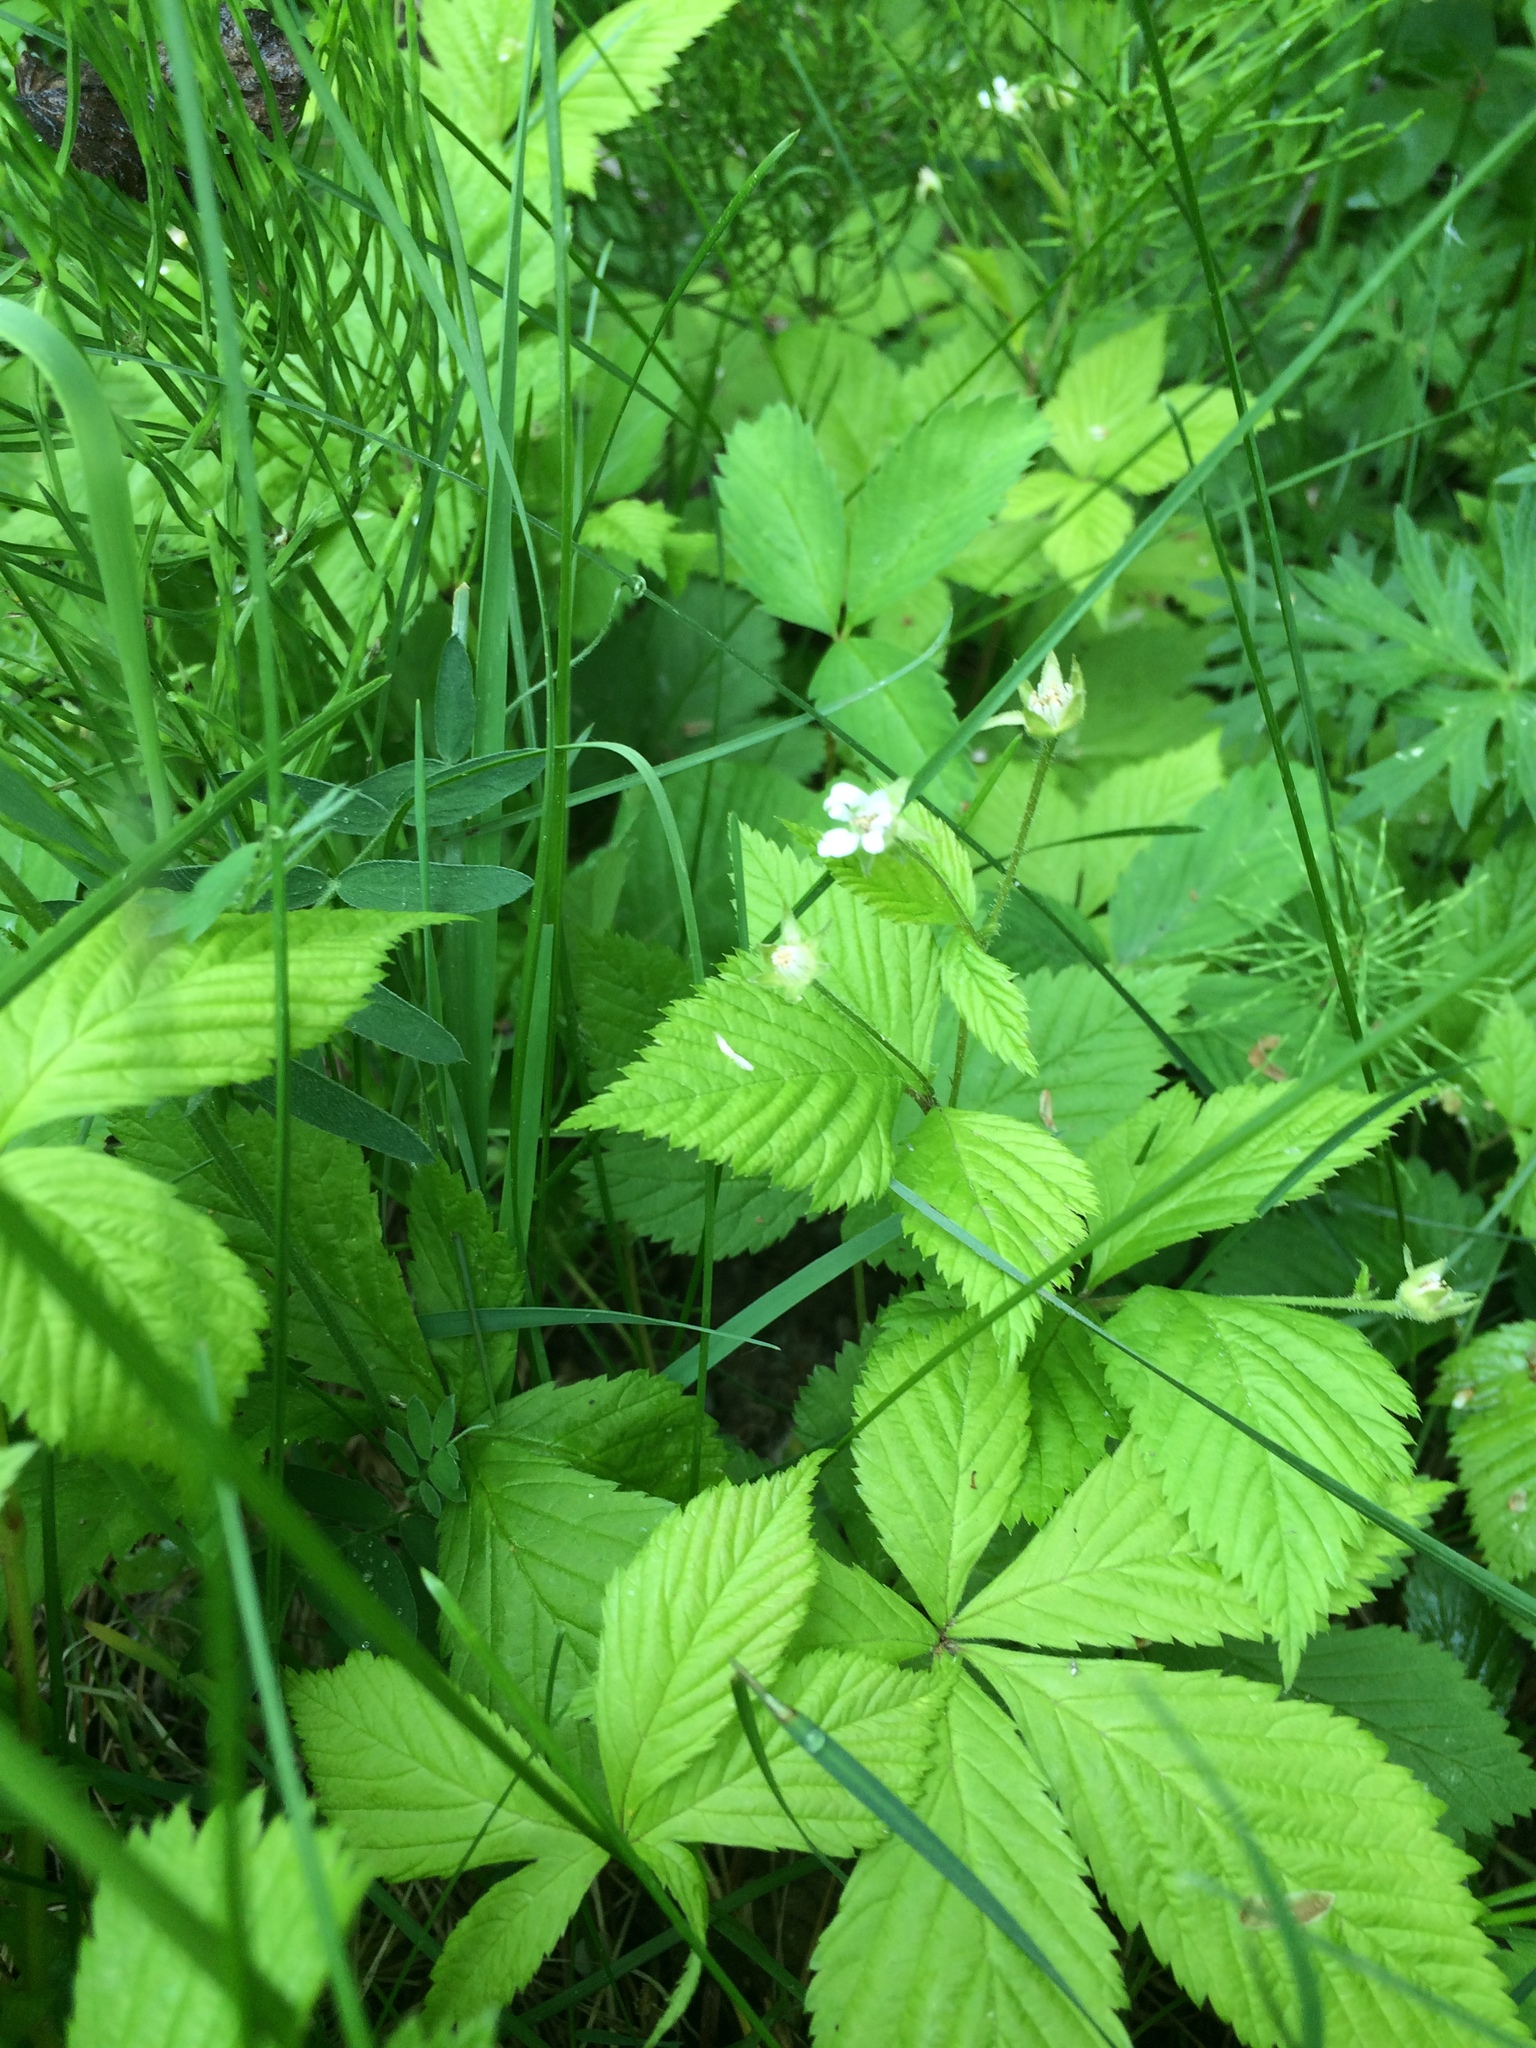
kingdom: Plantae
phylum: Tracheophyta
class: Polypodiopsida
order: Equisetales
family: Equisetaceae
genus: Equisetum
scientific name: Equisetum arvense
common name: Field horsetail
